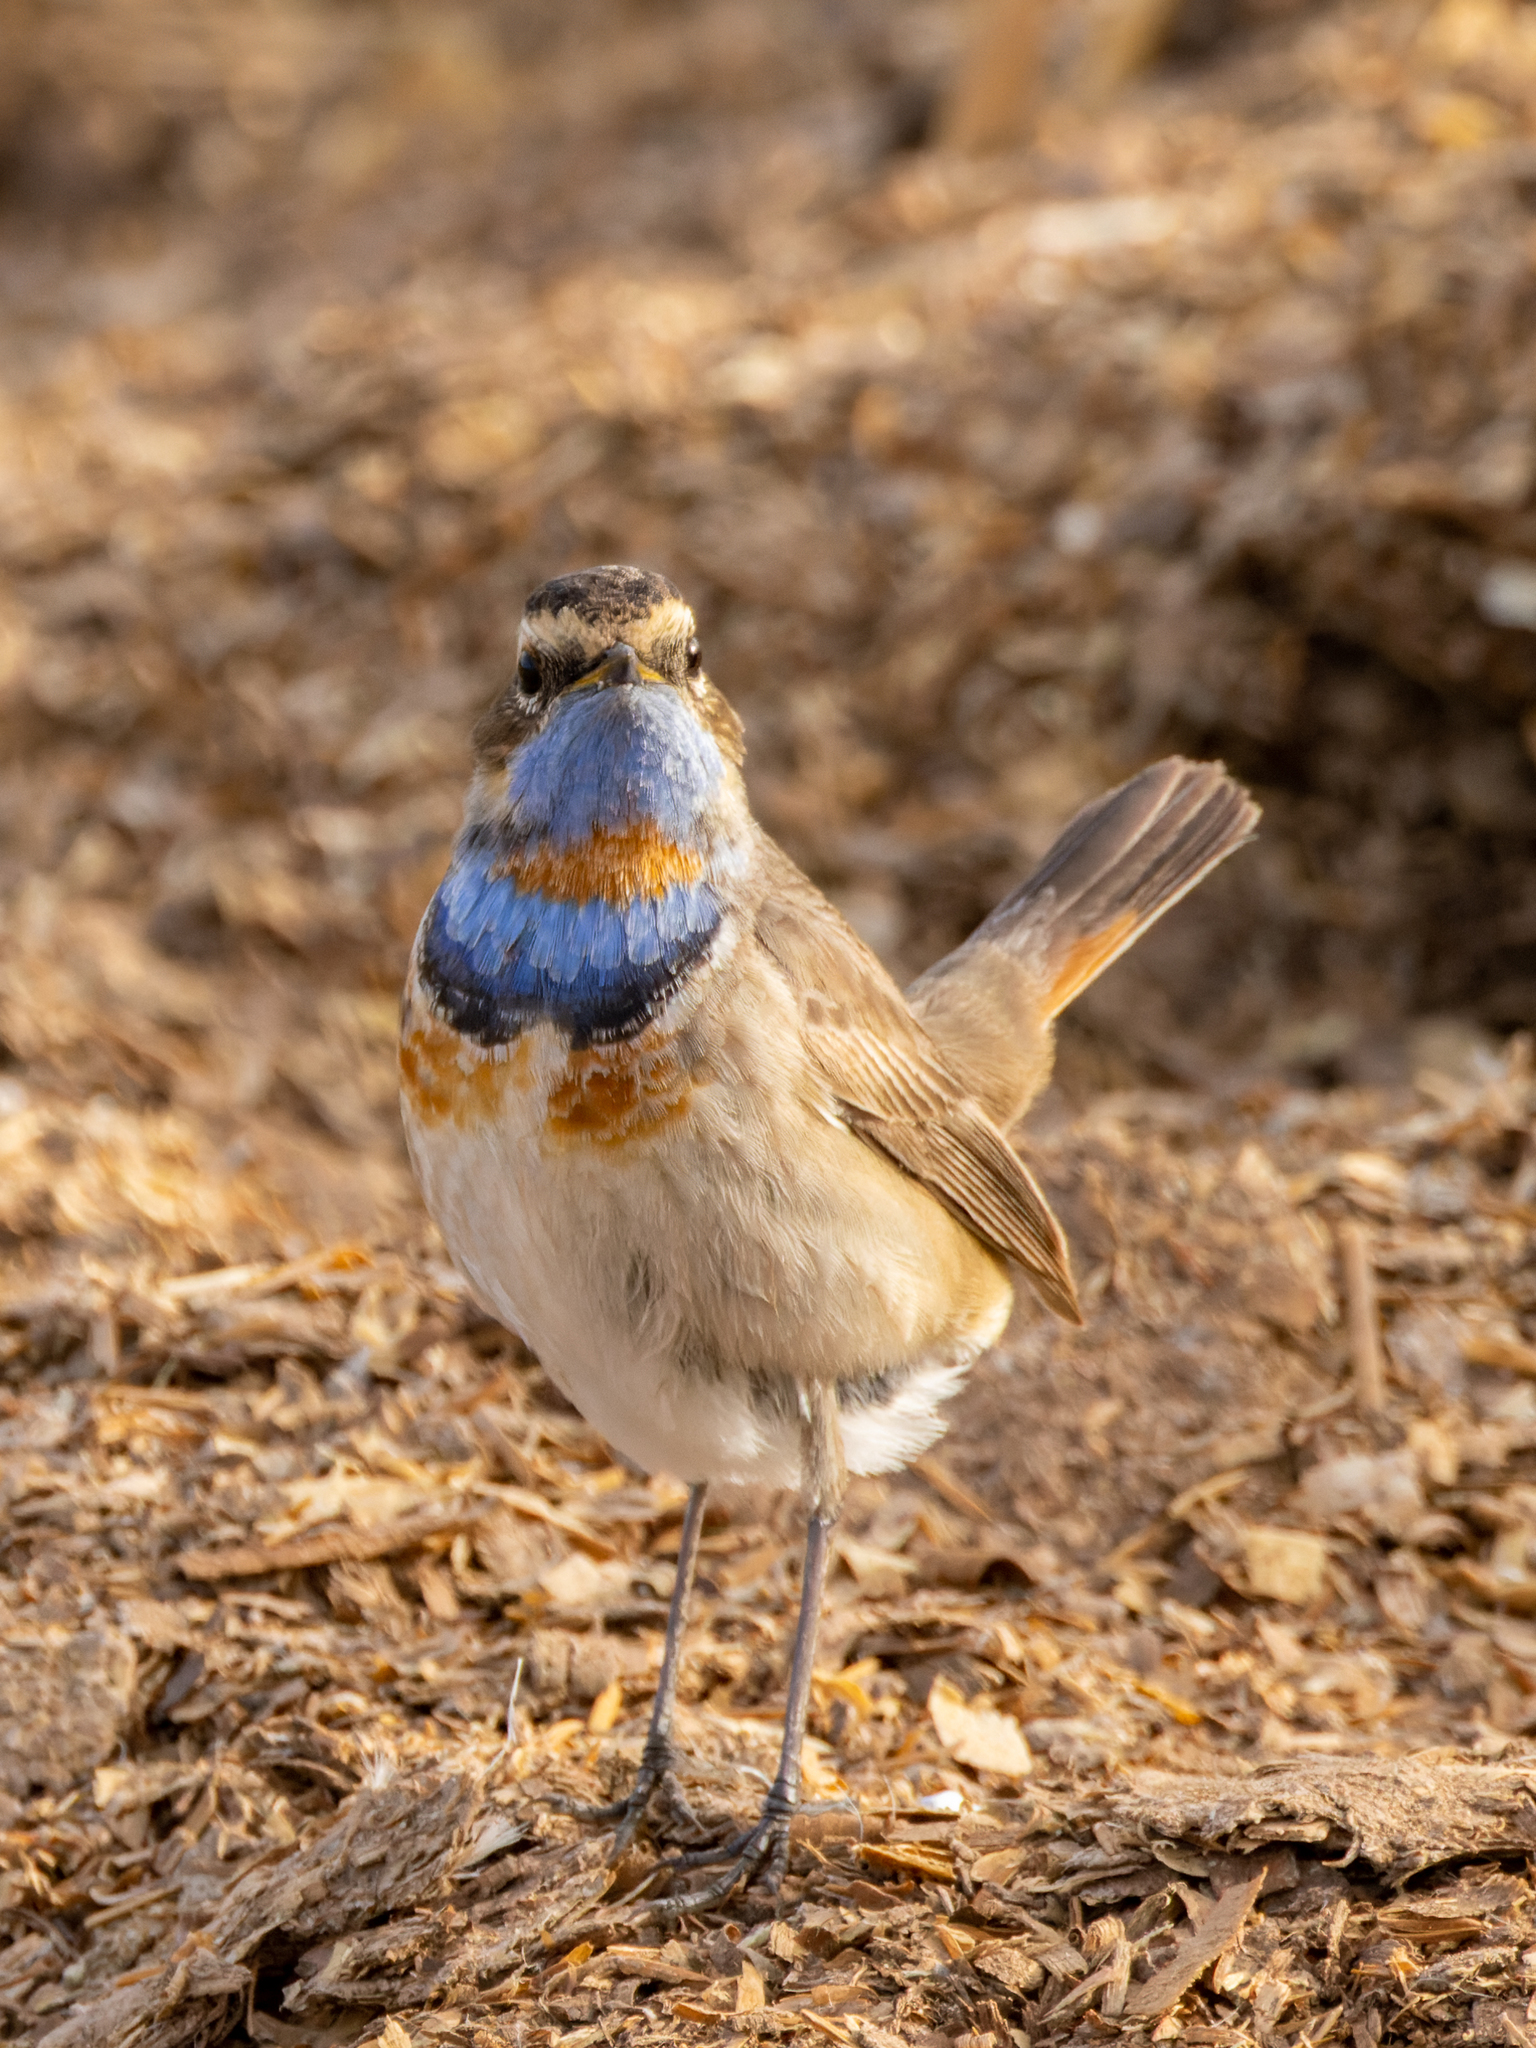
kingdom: Animalia
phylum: Chordata
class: Aves
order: Passeriformes
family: Muscicapidae
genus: Luscinia
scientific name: Luscinia svecica
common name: Bluethroat
